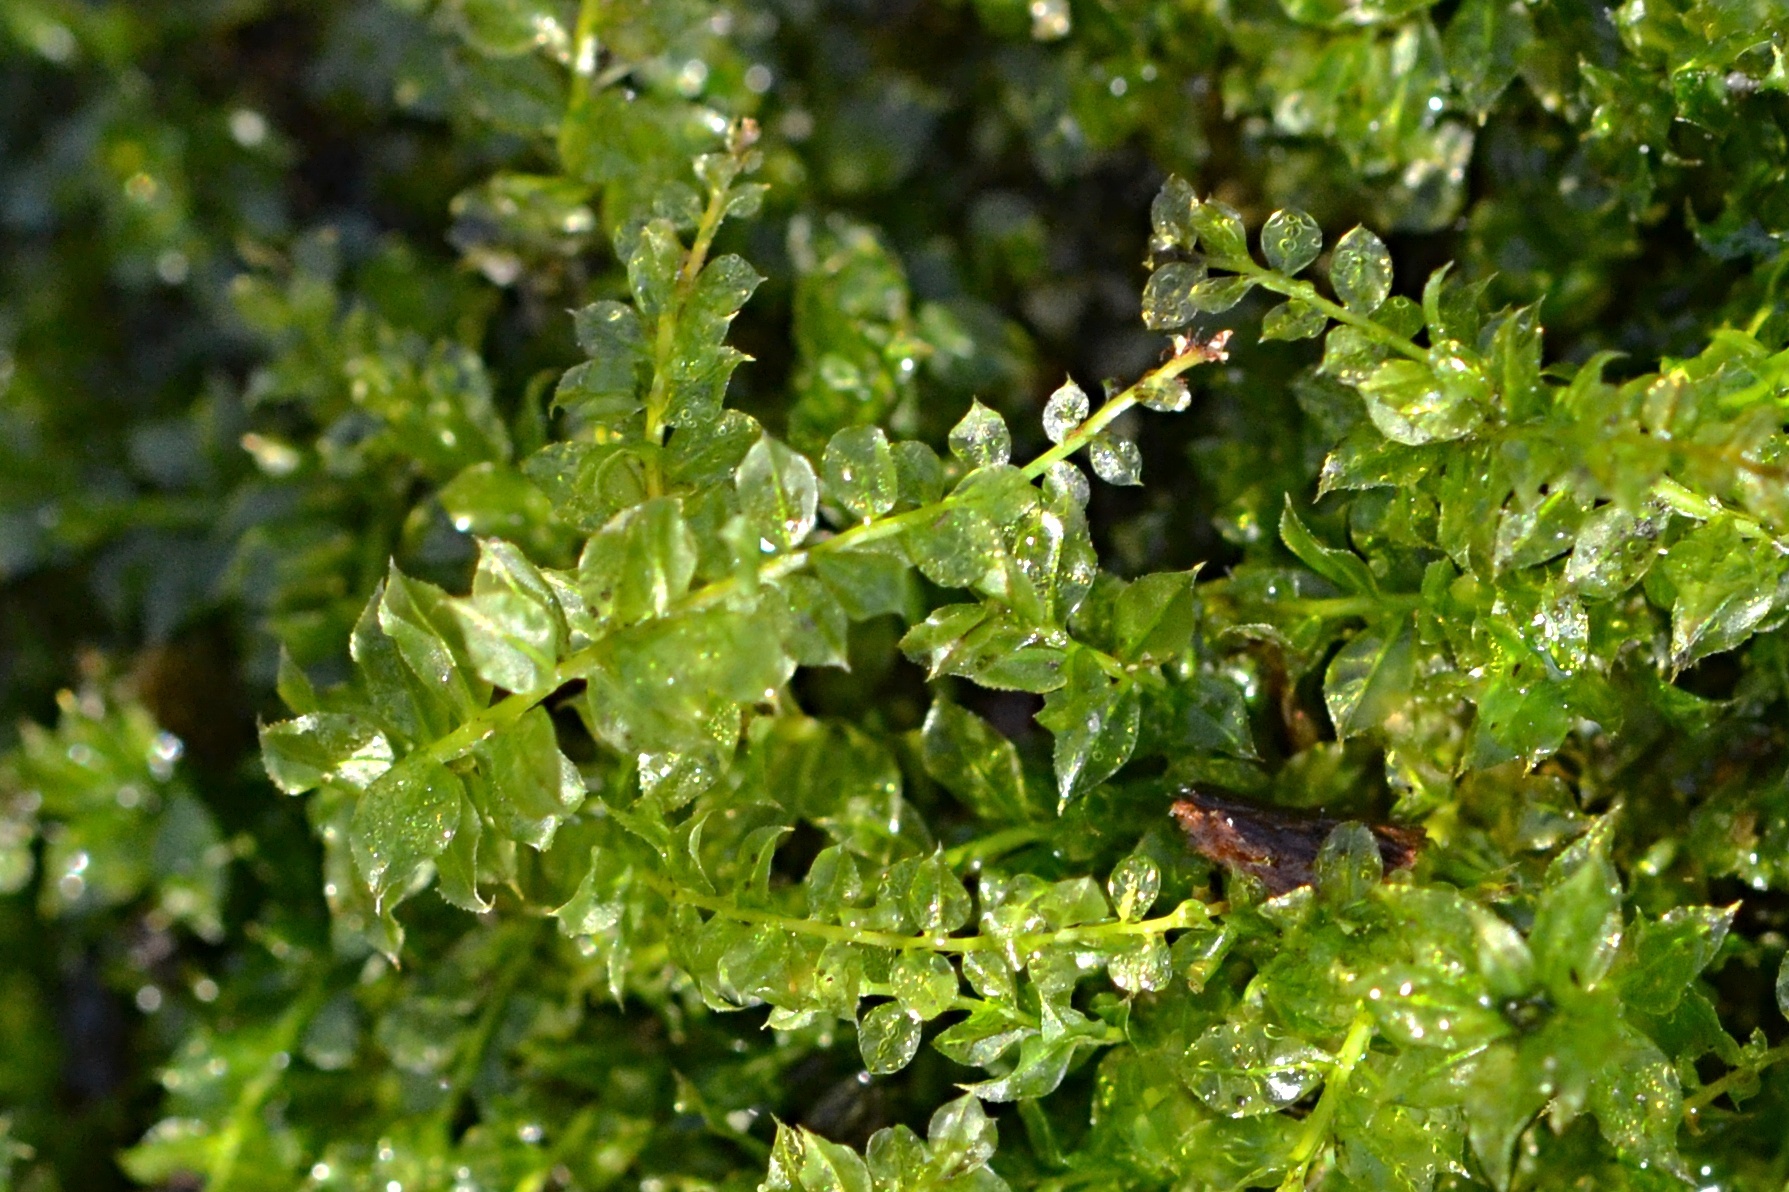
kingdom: Plantae
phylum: Bryophyta
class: Bryopsida
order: Bryales
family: Mniaceae
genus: Plagiomnium
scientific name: Plagiomnium cuspidatum
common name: Woodsy leafy moss
